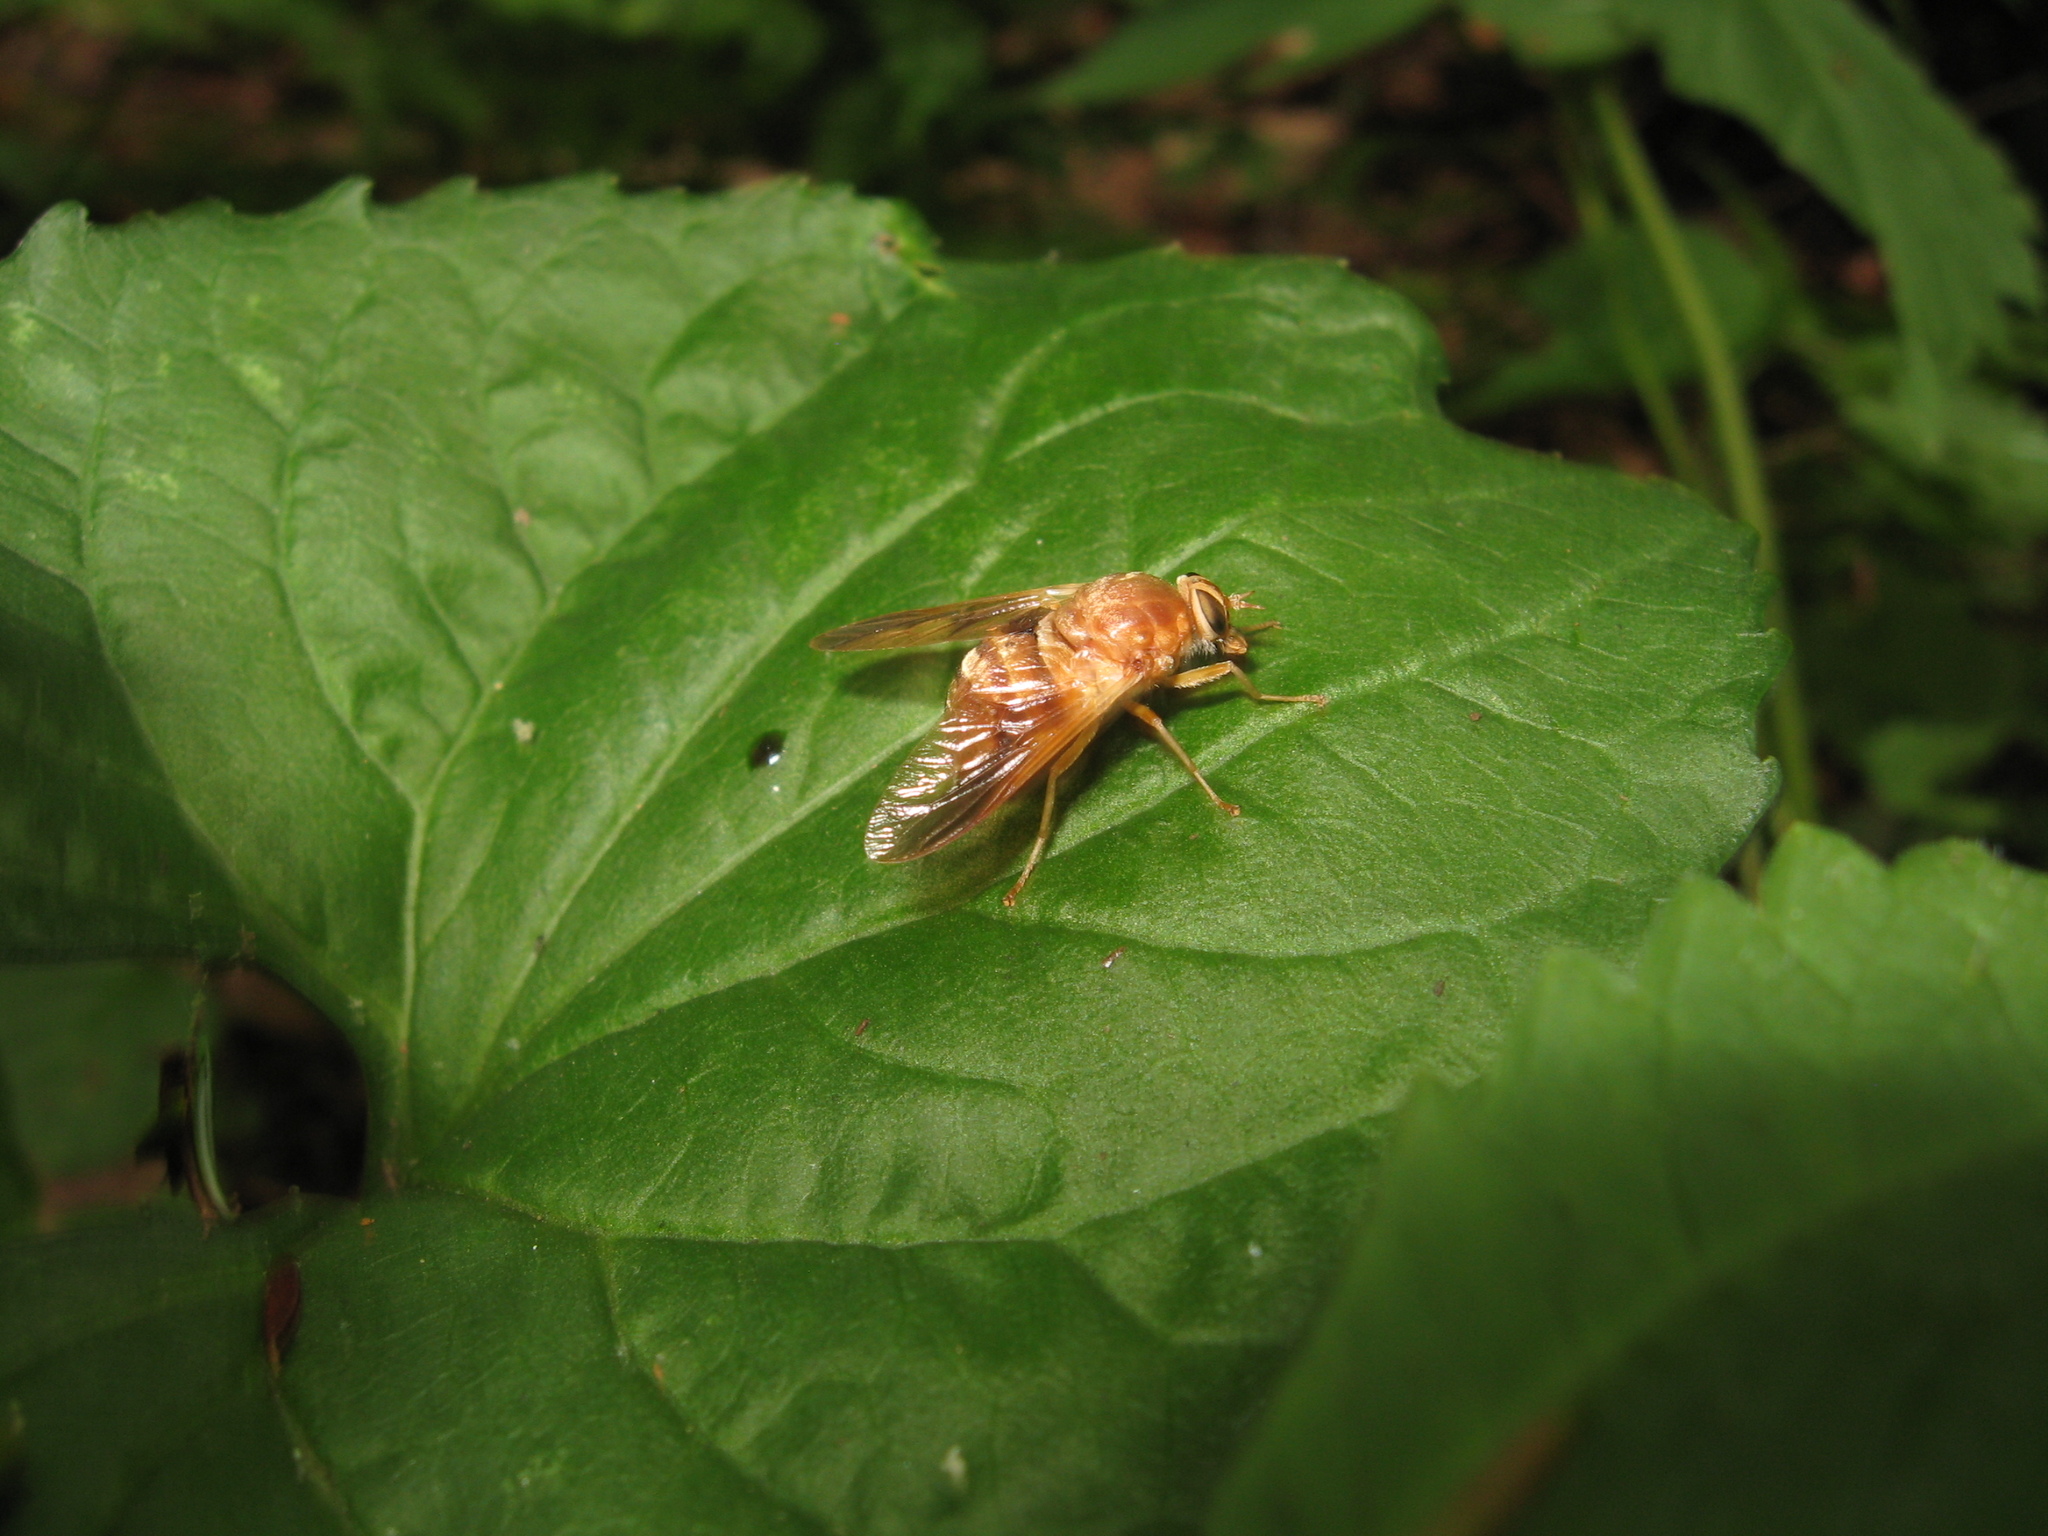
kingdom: Animalia
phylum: Arthropoda
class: Insecta
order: Diptera
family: Tabanidae
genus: Goniops
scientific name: Goniops chrysocoma
